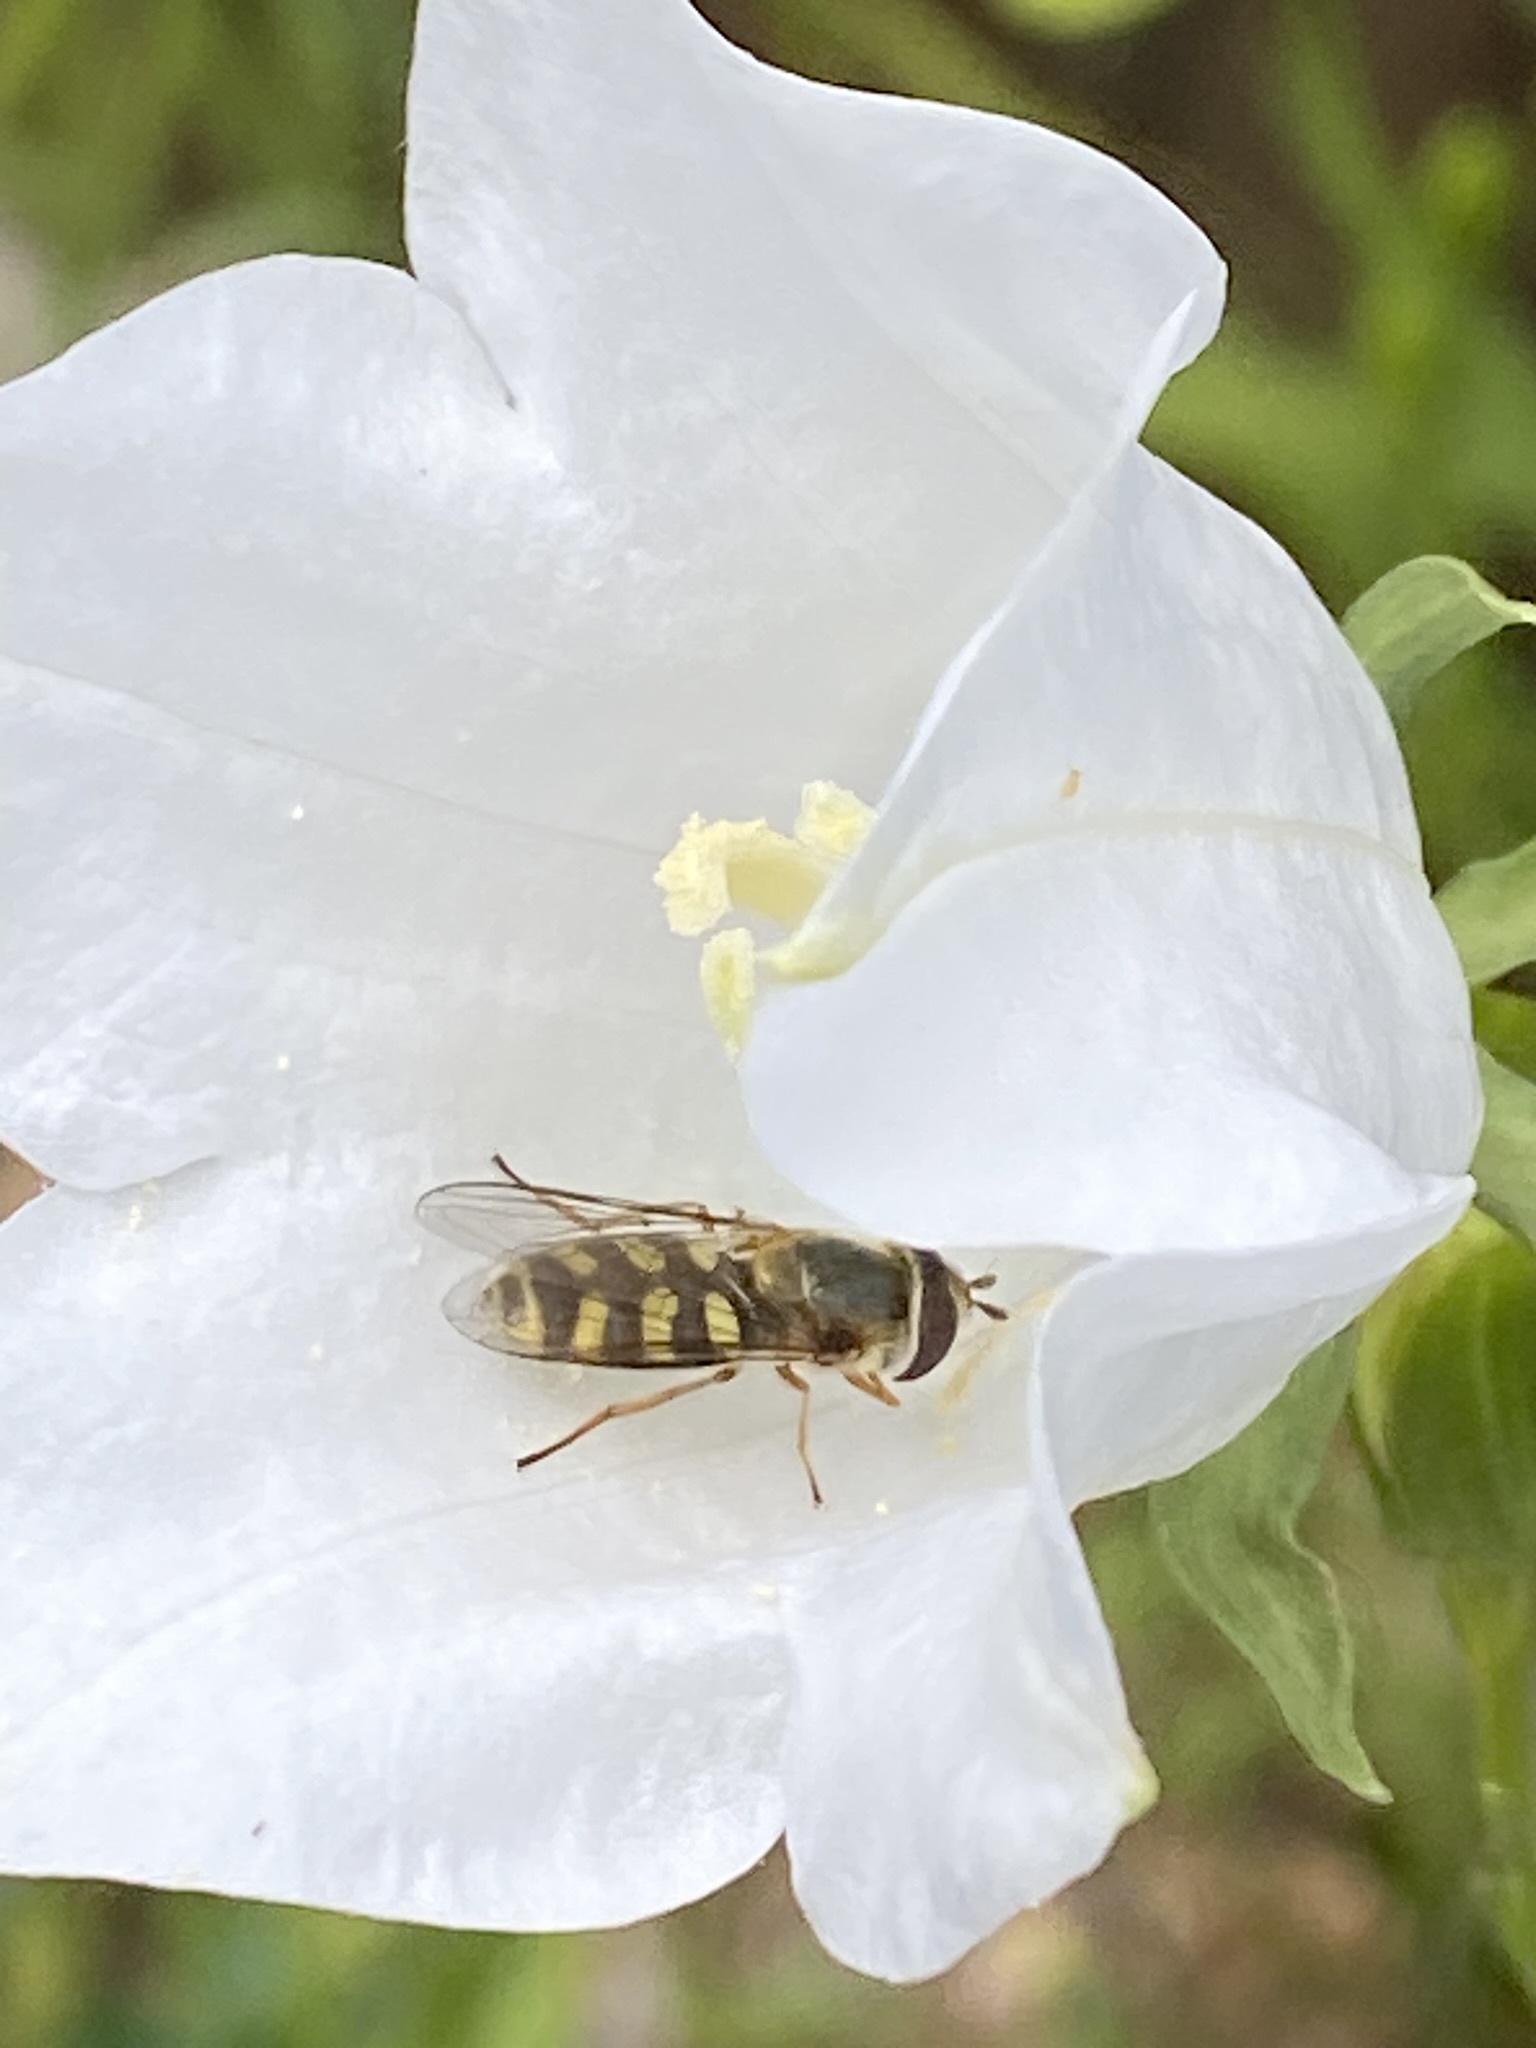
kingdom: Animalia
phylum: Arthropoda
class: Insecta
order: Diptera
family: Syrphidae
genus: Eupeodes
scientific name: Eupeodes
